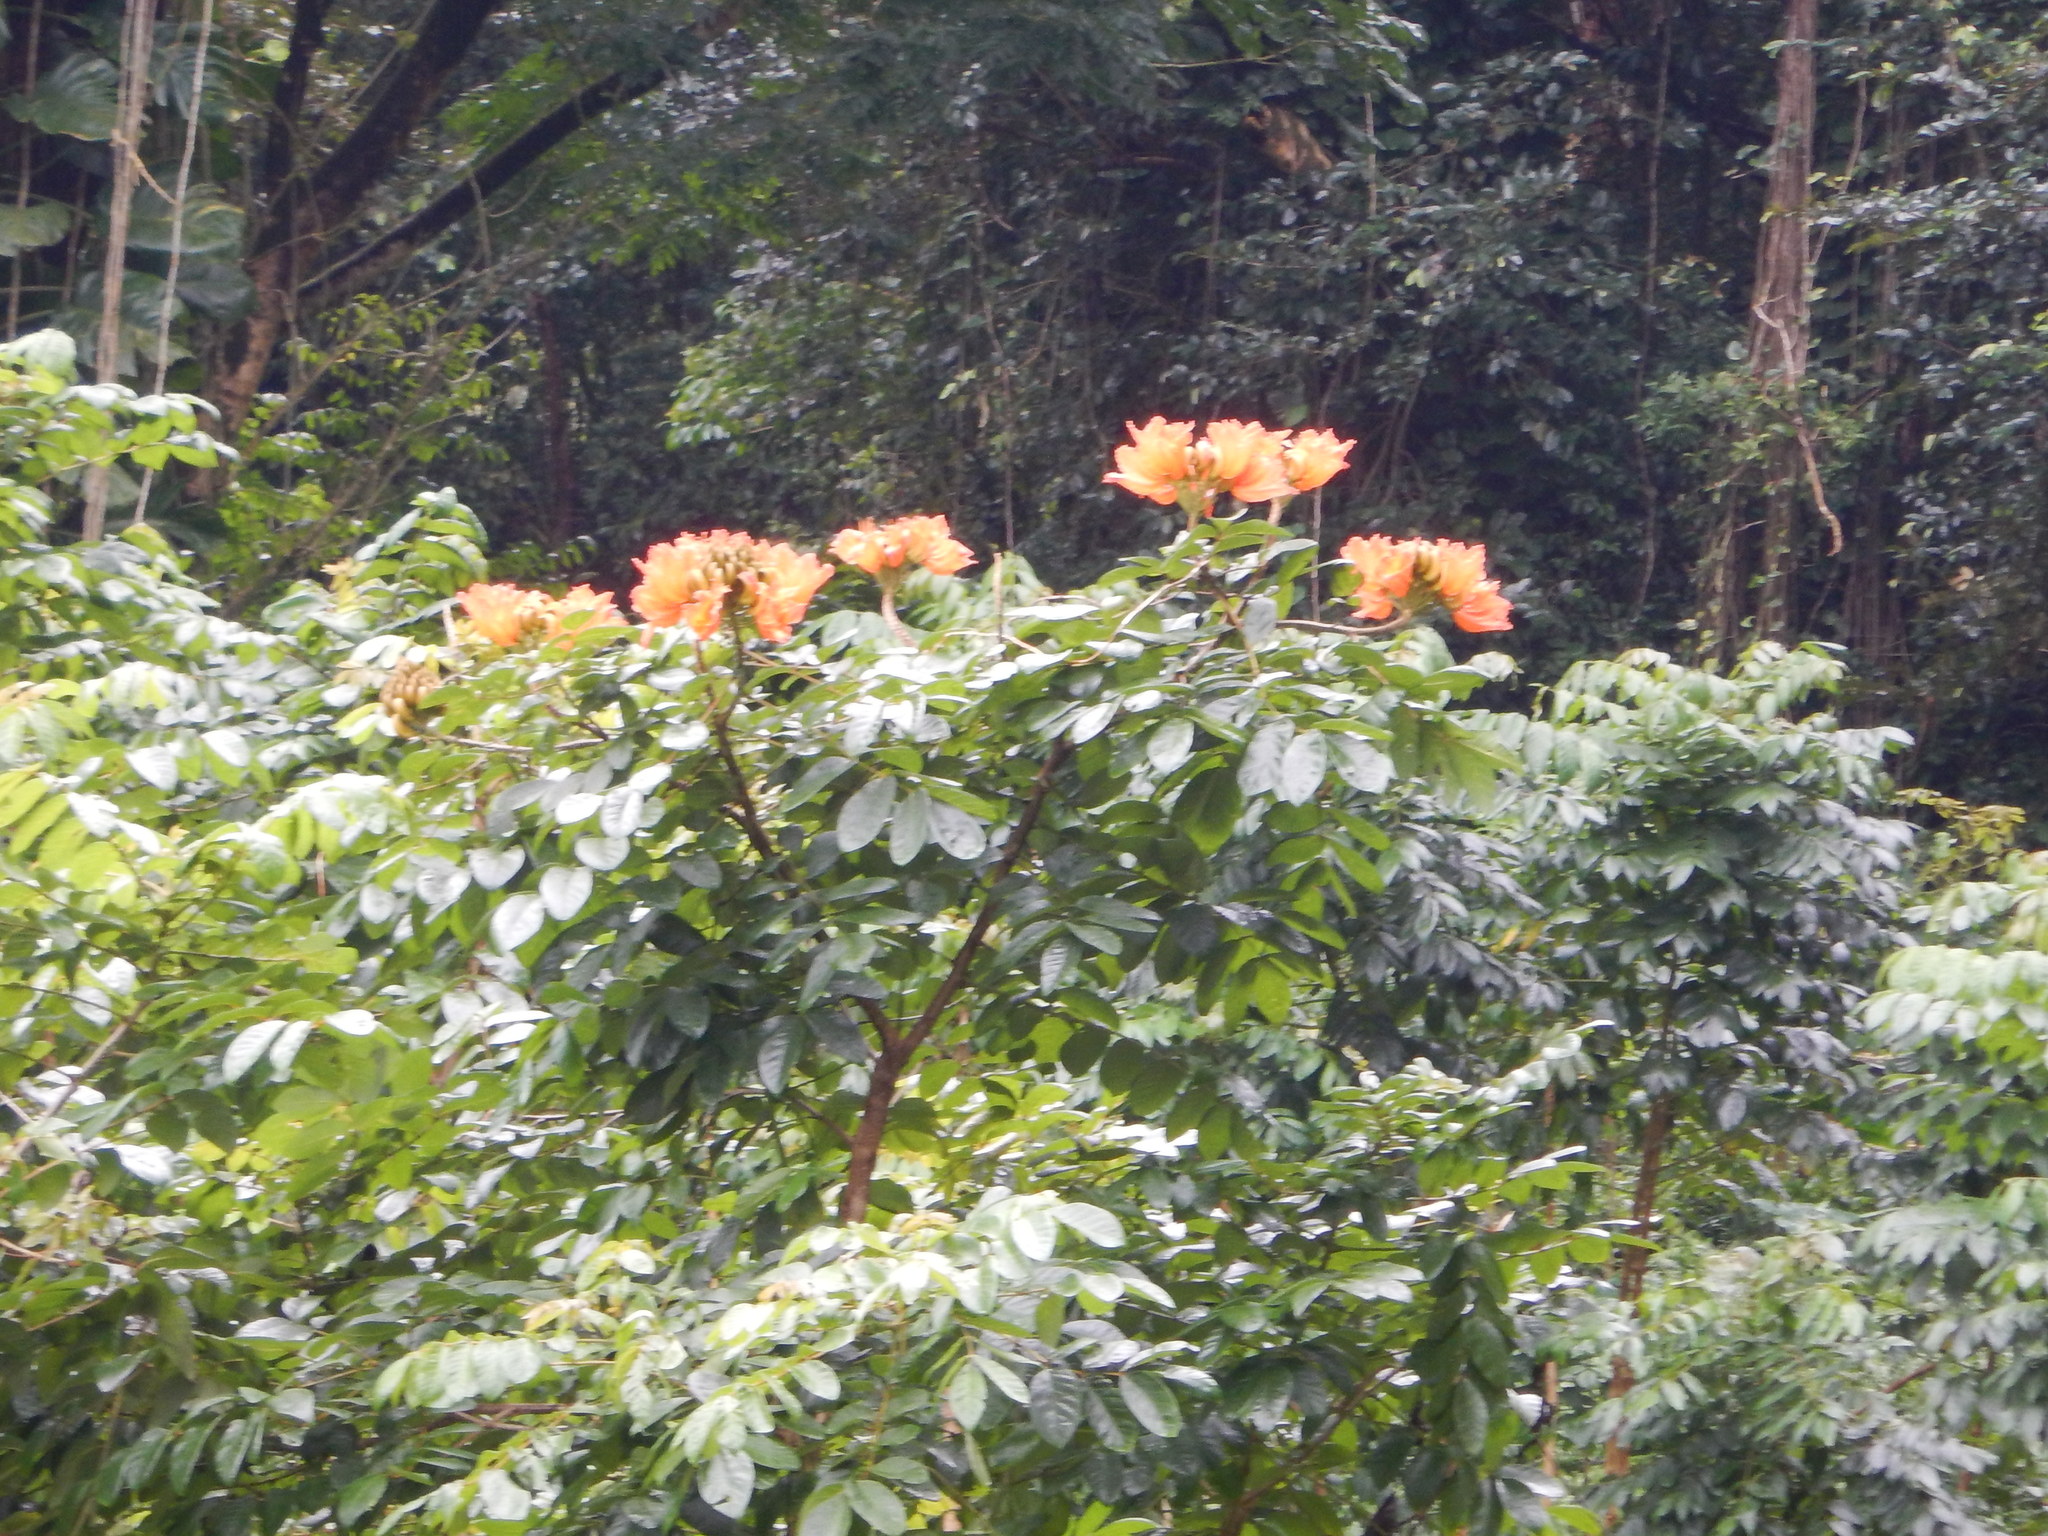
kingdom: Plantae
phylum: Tracheophyta
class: Magnoliopsida
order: Lamiales
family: Bignoniaceae
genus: Spathodea
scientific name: Spathodea campanulata
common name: African tuliptree
